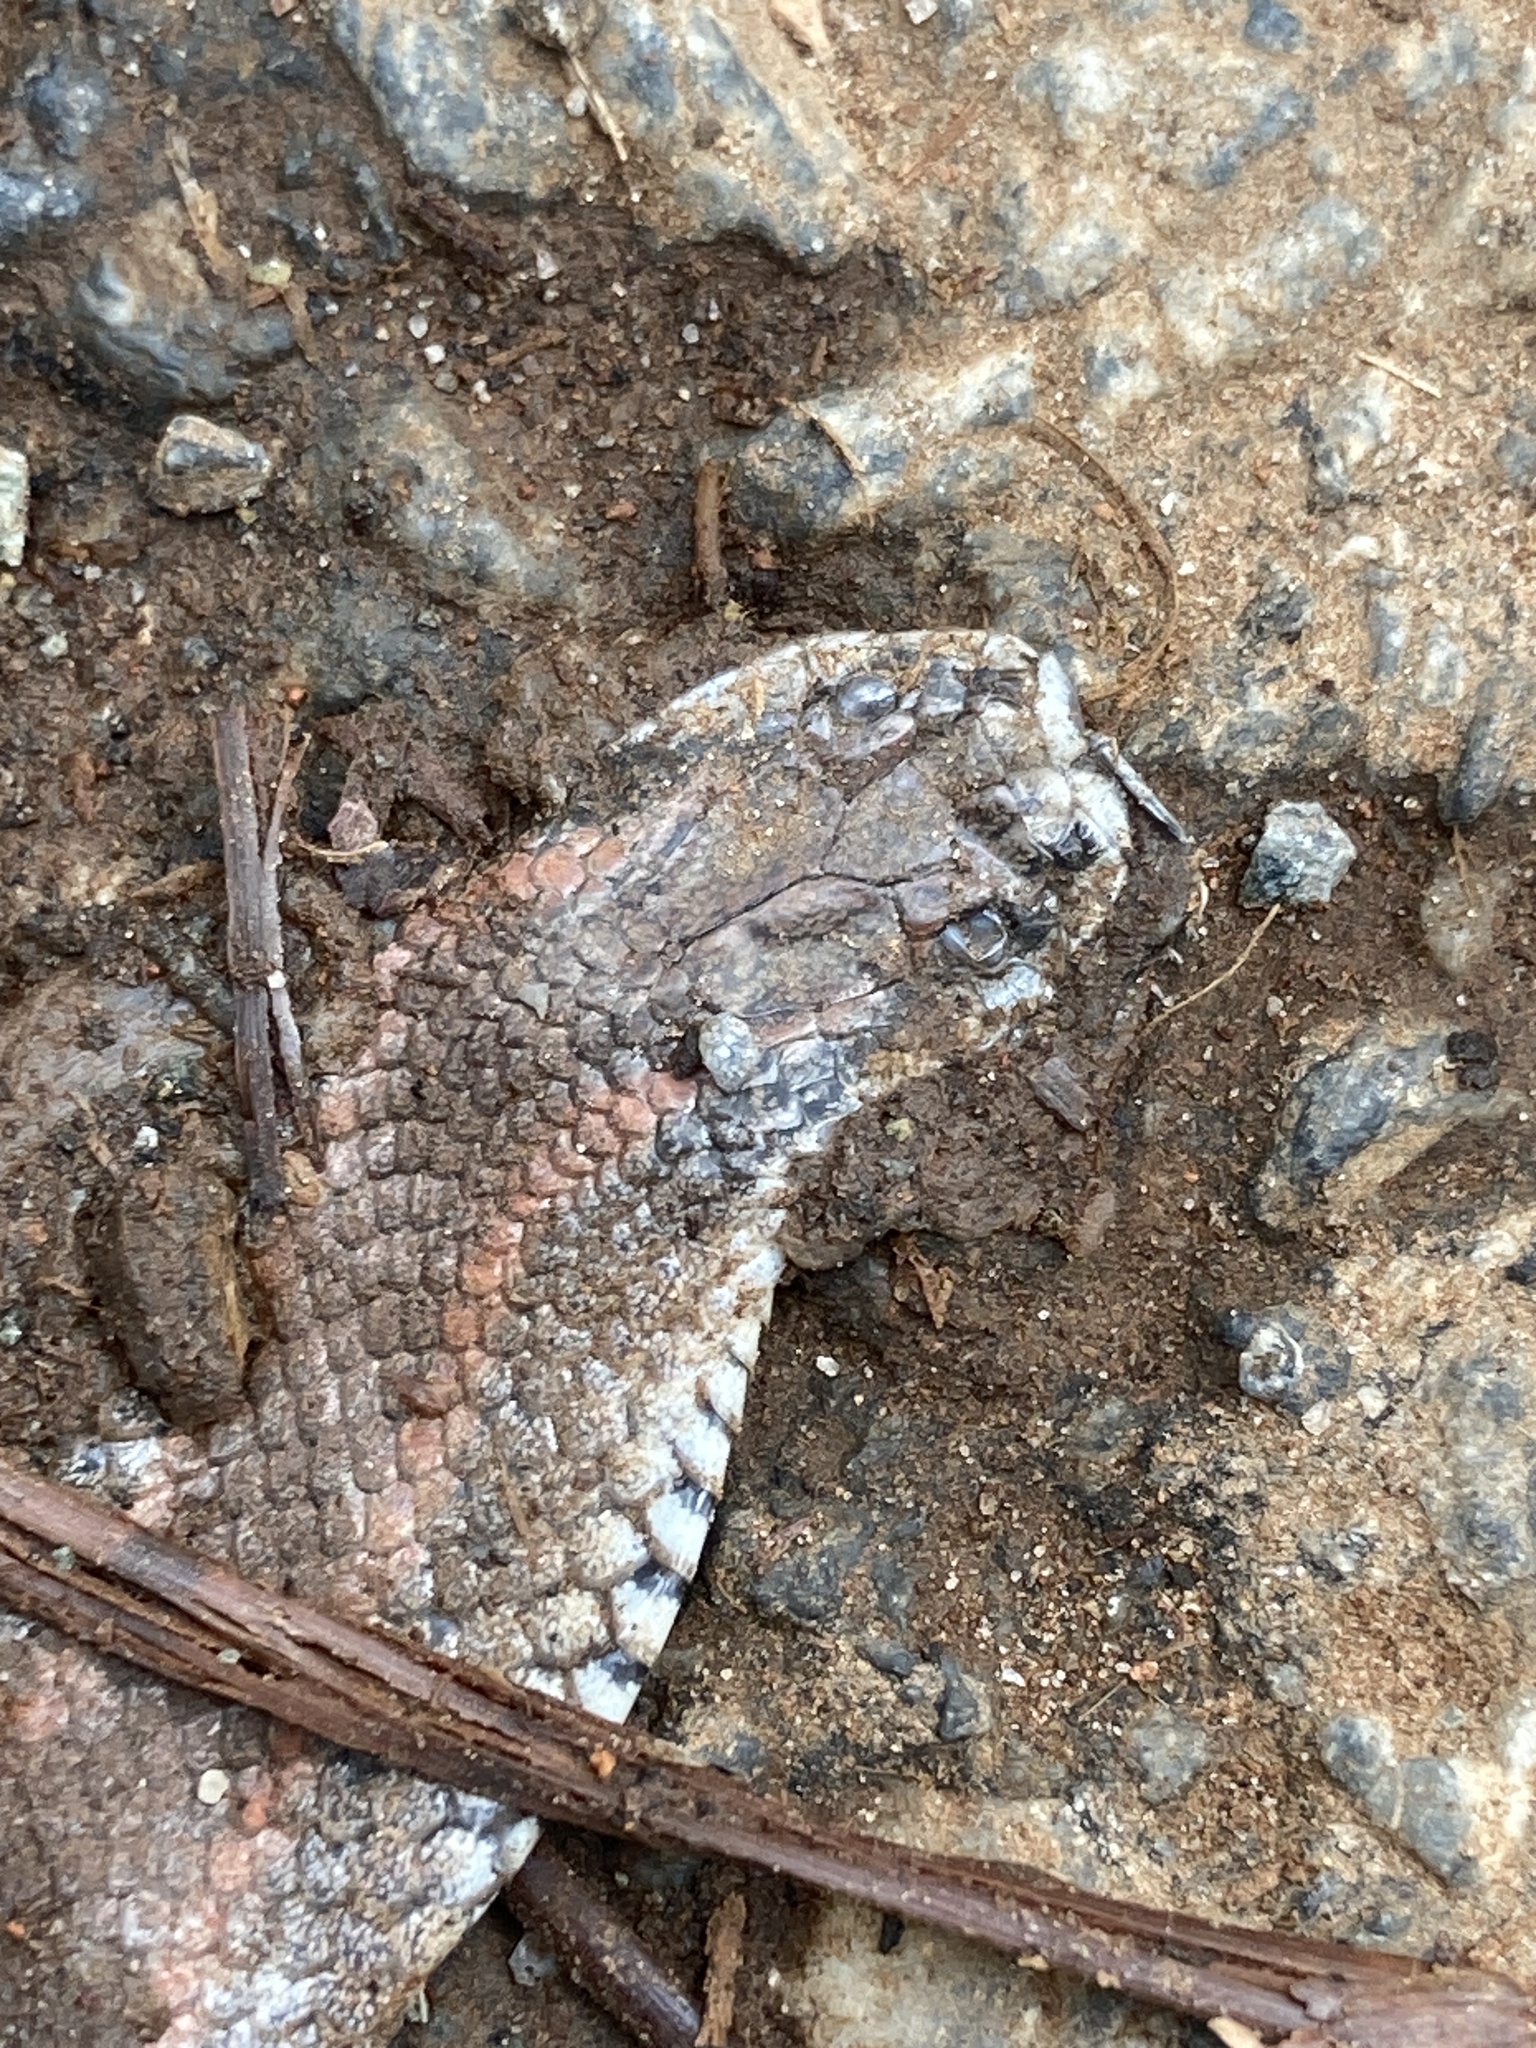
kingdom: Animalia
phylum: Chordata
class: Squamata
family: Colubridae
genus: Contia
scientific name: Contia tenuis
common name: Sharptail snake
